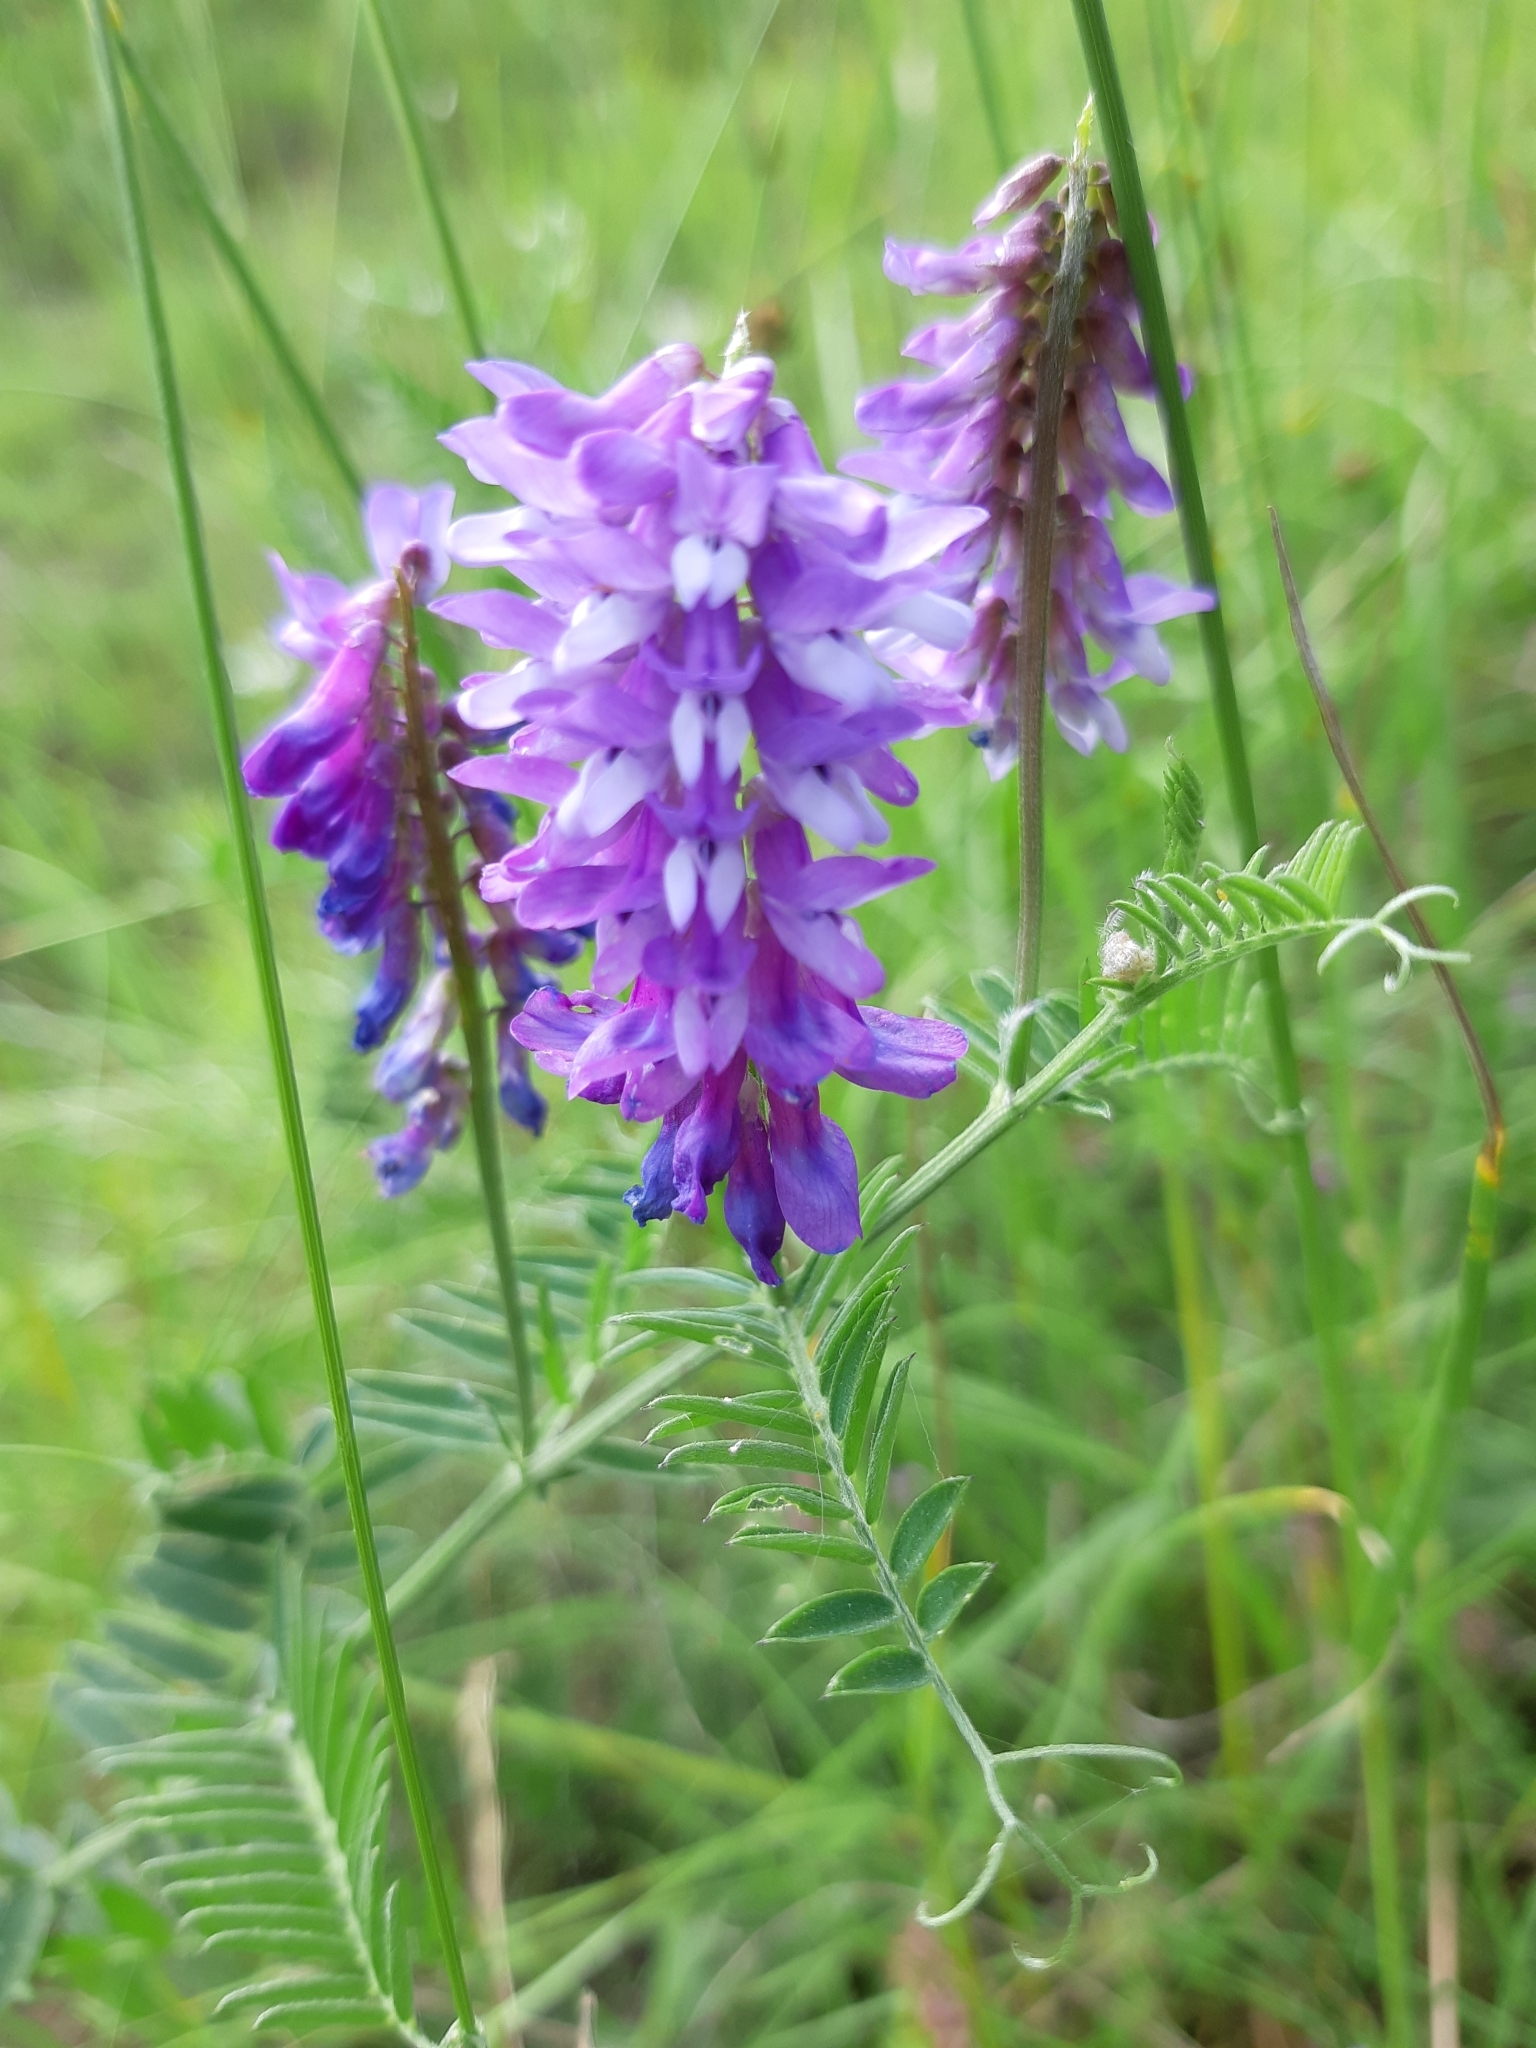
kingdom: Plantae
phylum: Tracheophyta
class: Magnoliopsida
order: Fabales
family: Fabaceae
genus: Vicia
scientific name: Vicia cracca
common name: Bird vetch
